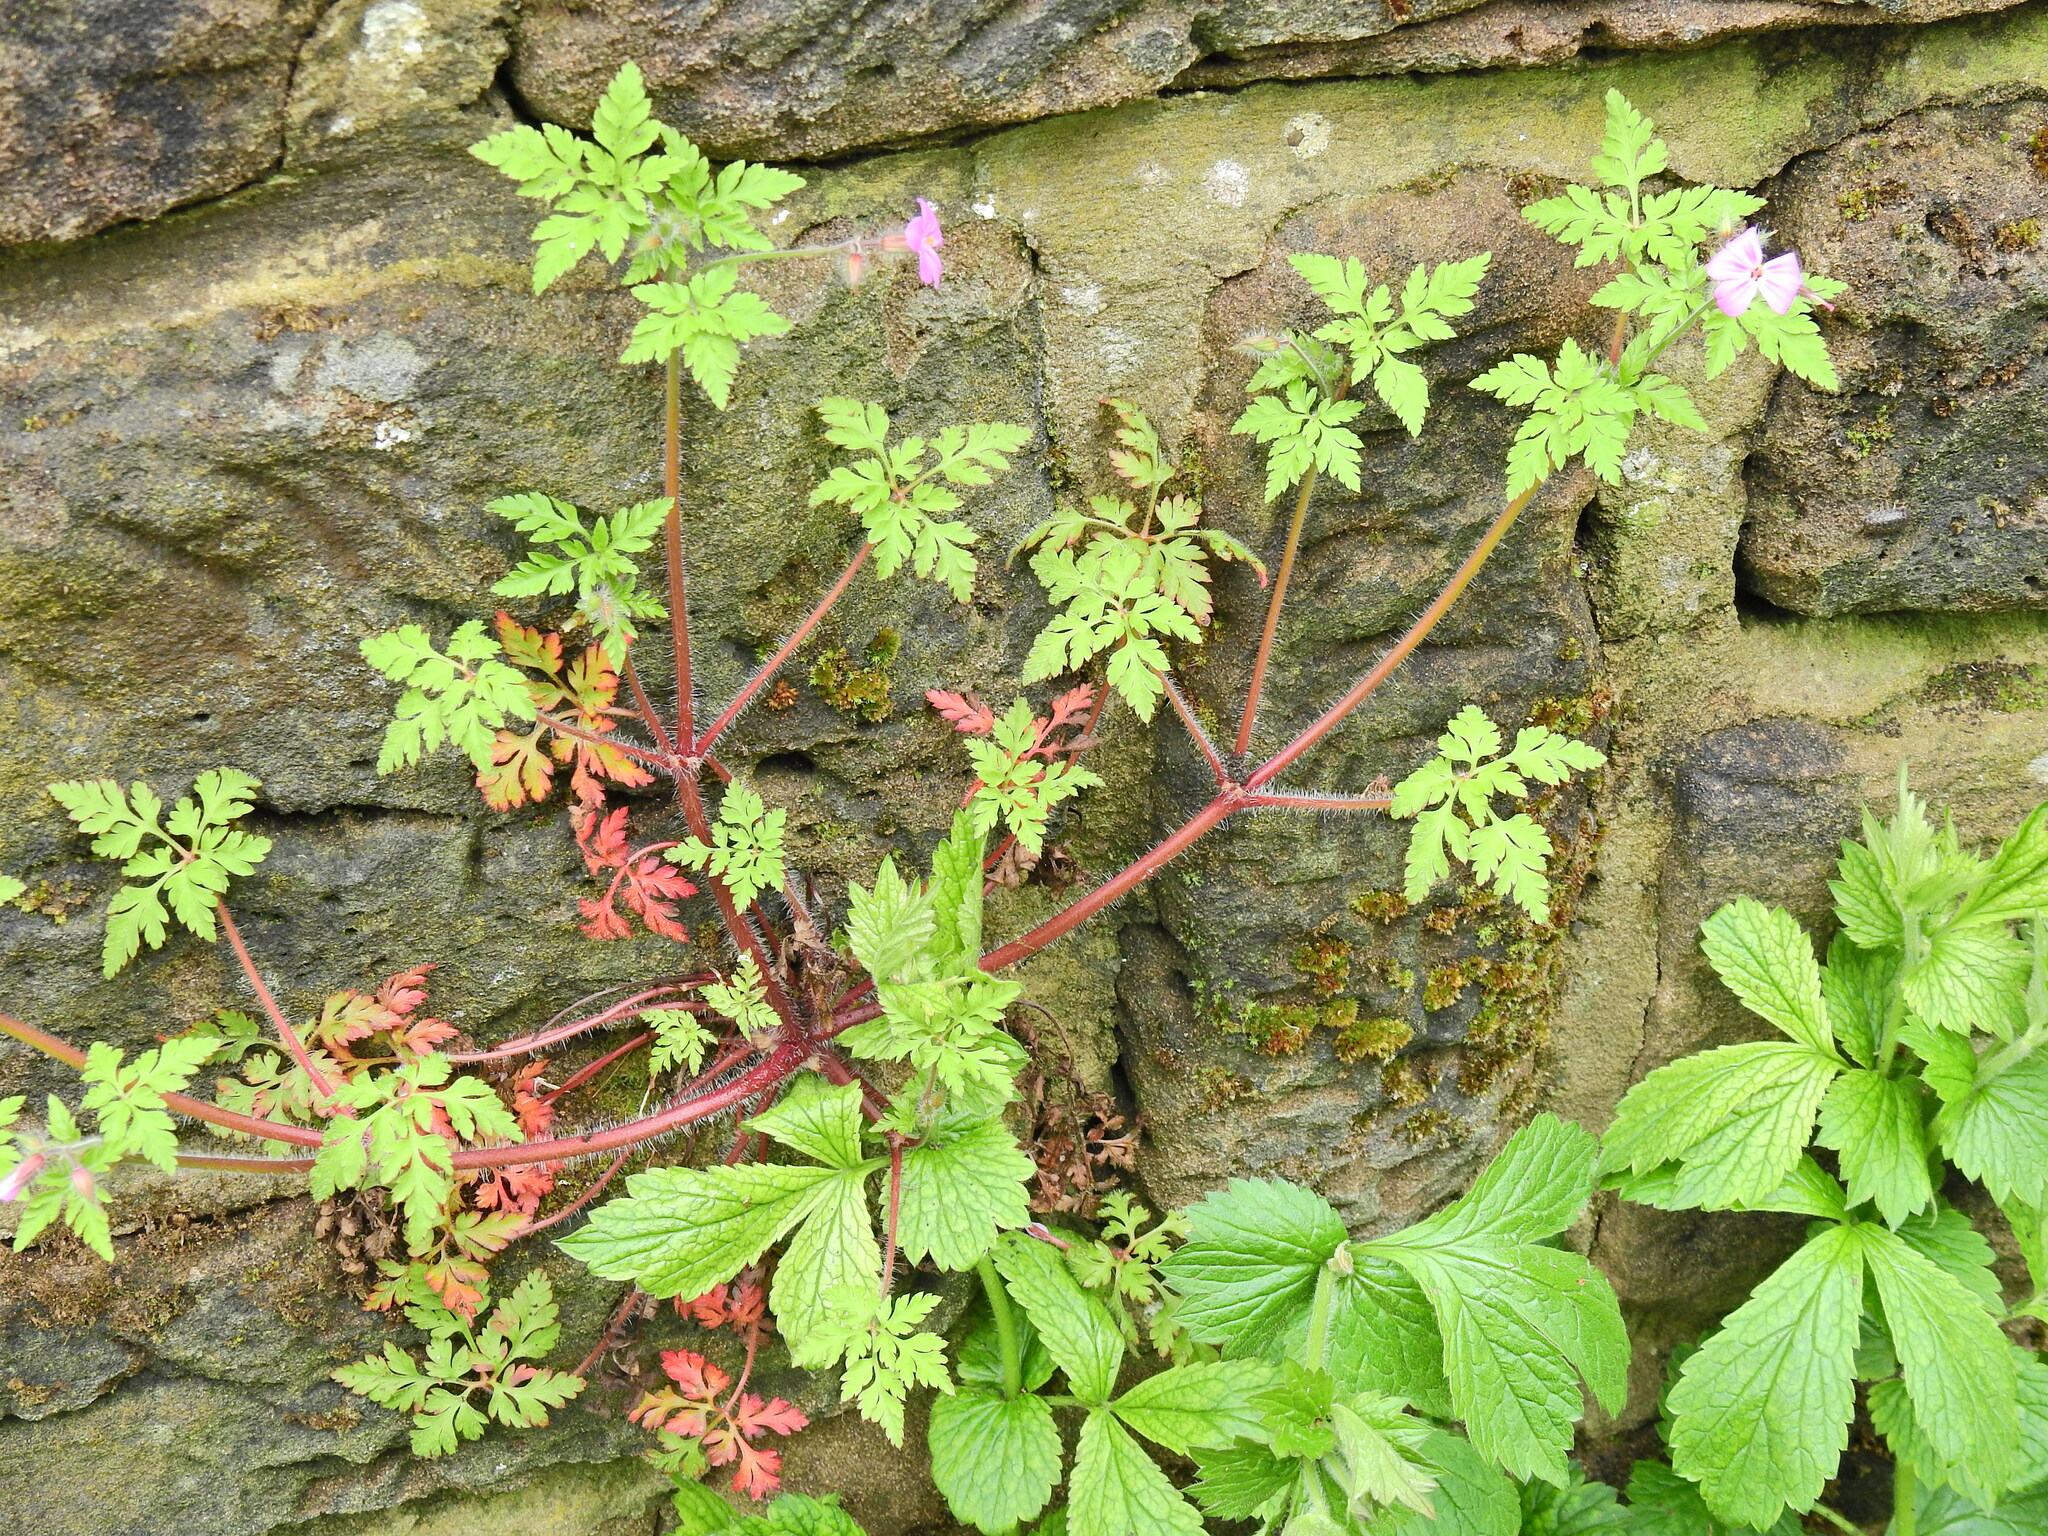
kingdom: Plantae
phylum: Tracheophyta
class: Magnoliopsida
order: Geraniales
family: Geraniaceae
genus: Geranium
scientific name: Geranium robertianum
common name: Herb-robert
